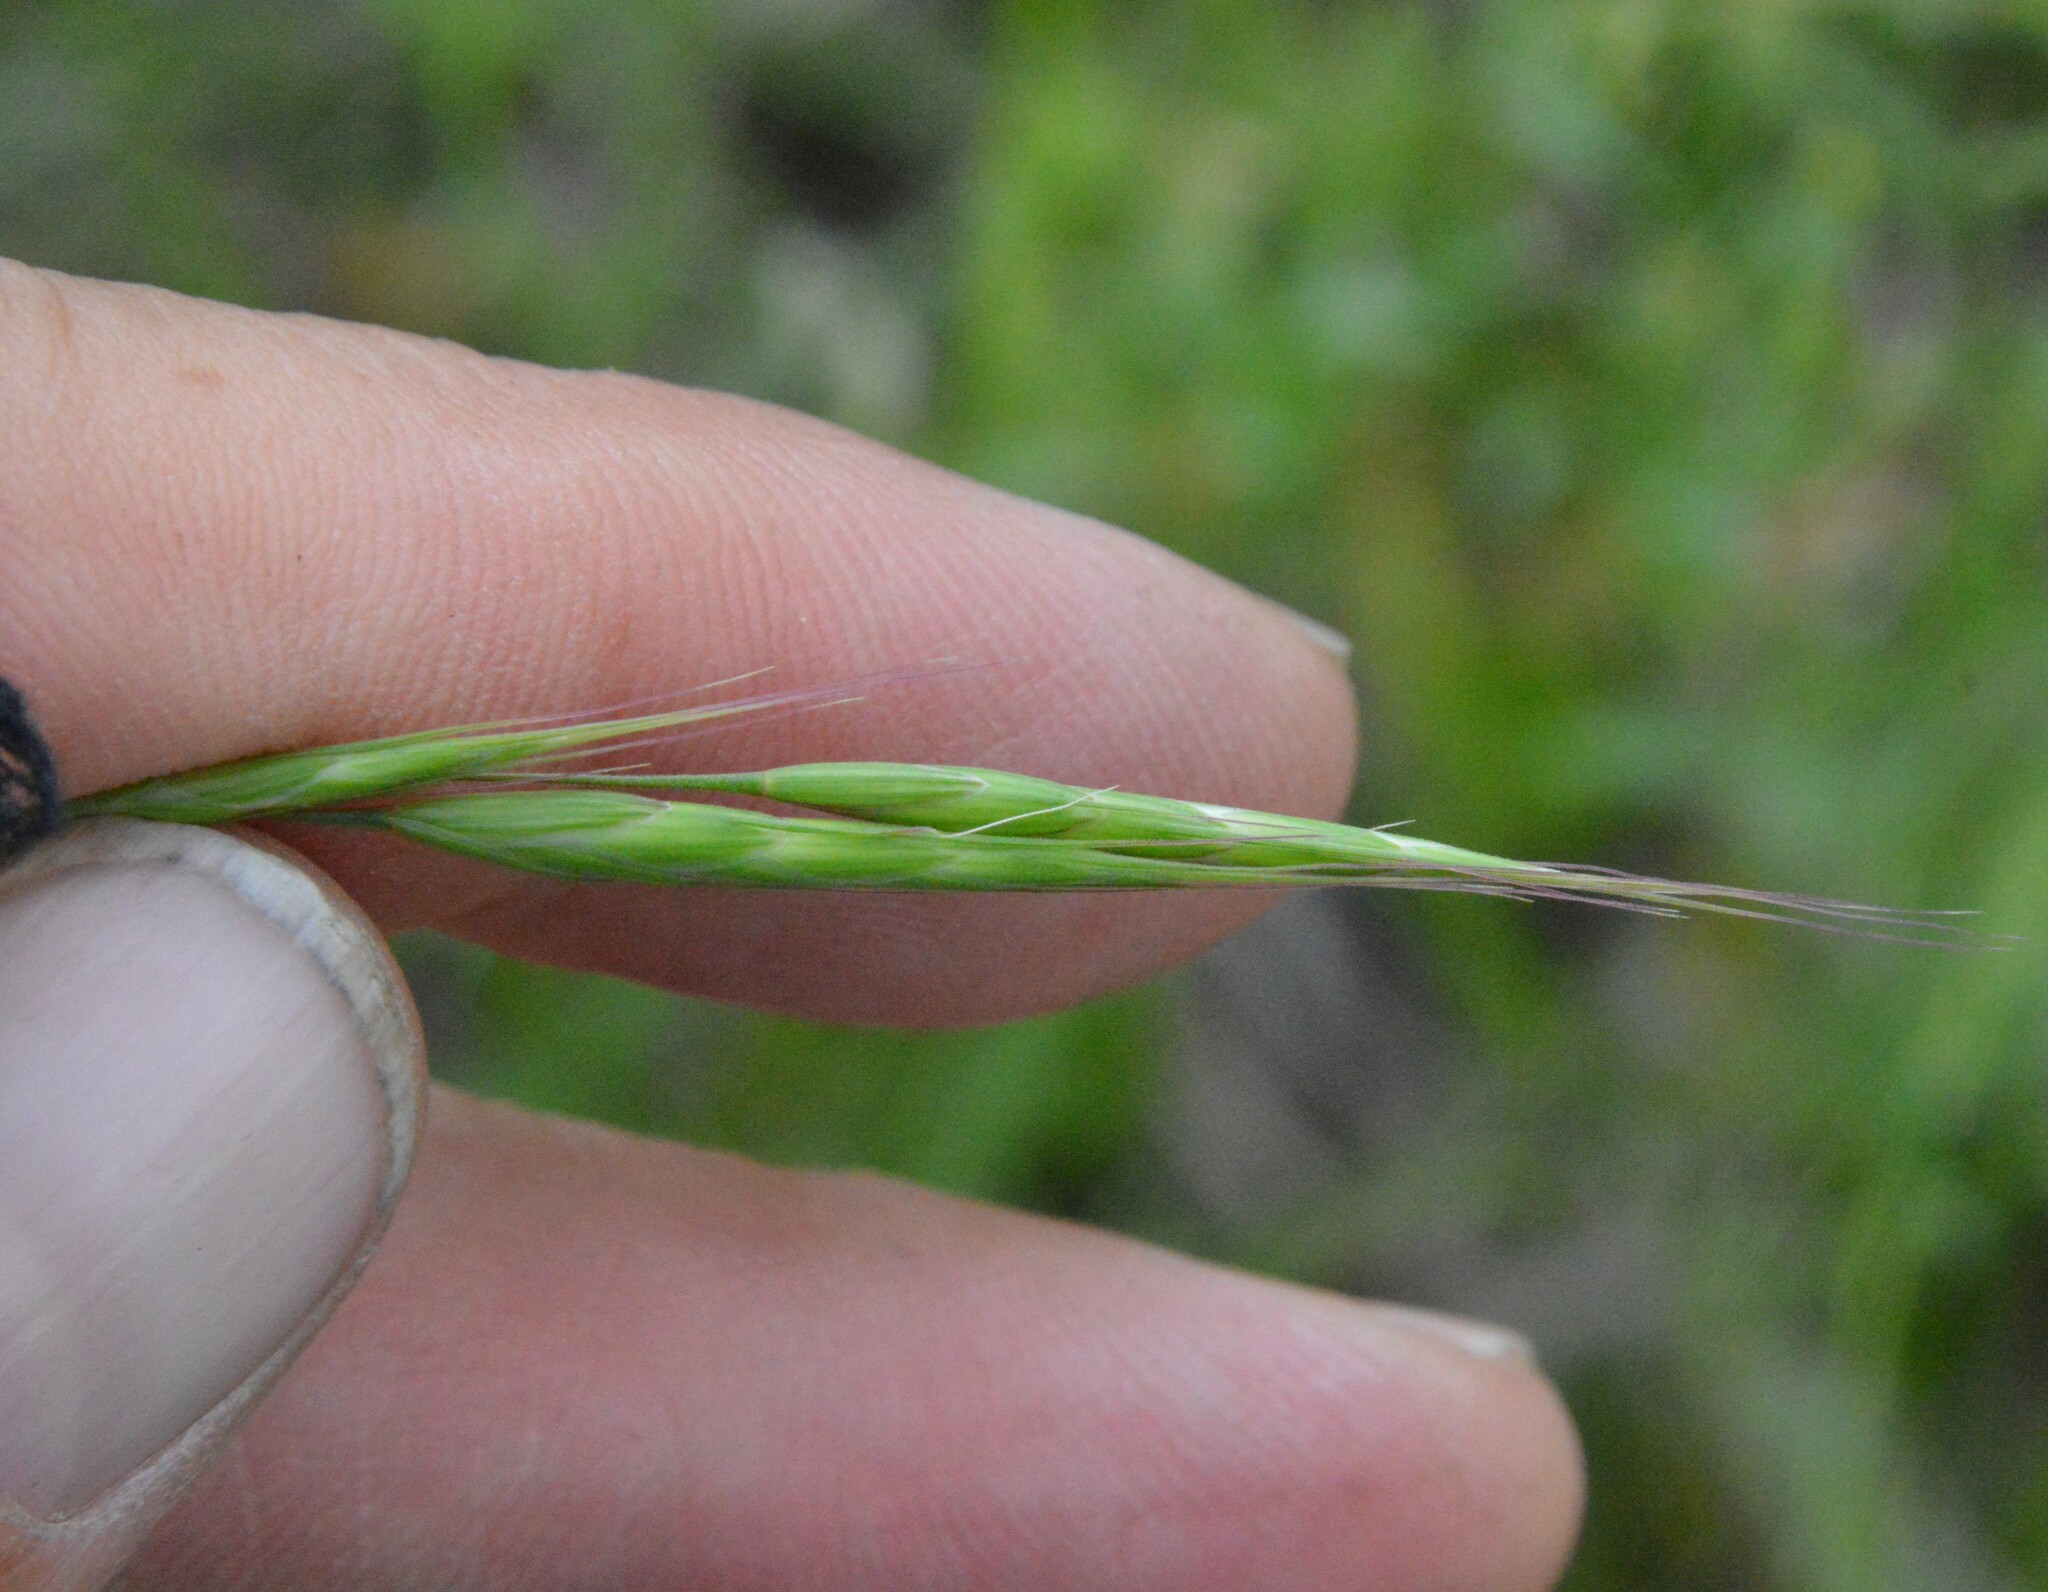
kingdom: Plantae
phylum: Tracheophyta
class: Liliopsida
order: Poales
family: Poaceae
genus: Bromus
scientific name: Bromus japonicus
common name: Japanese brome
